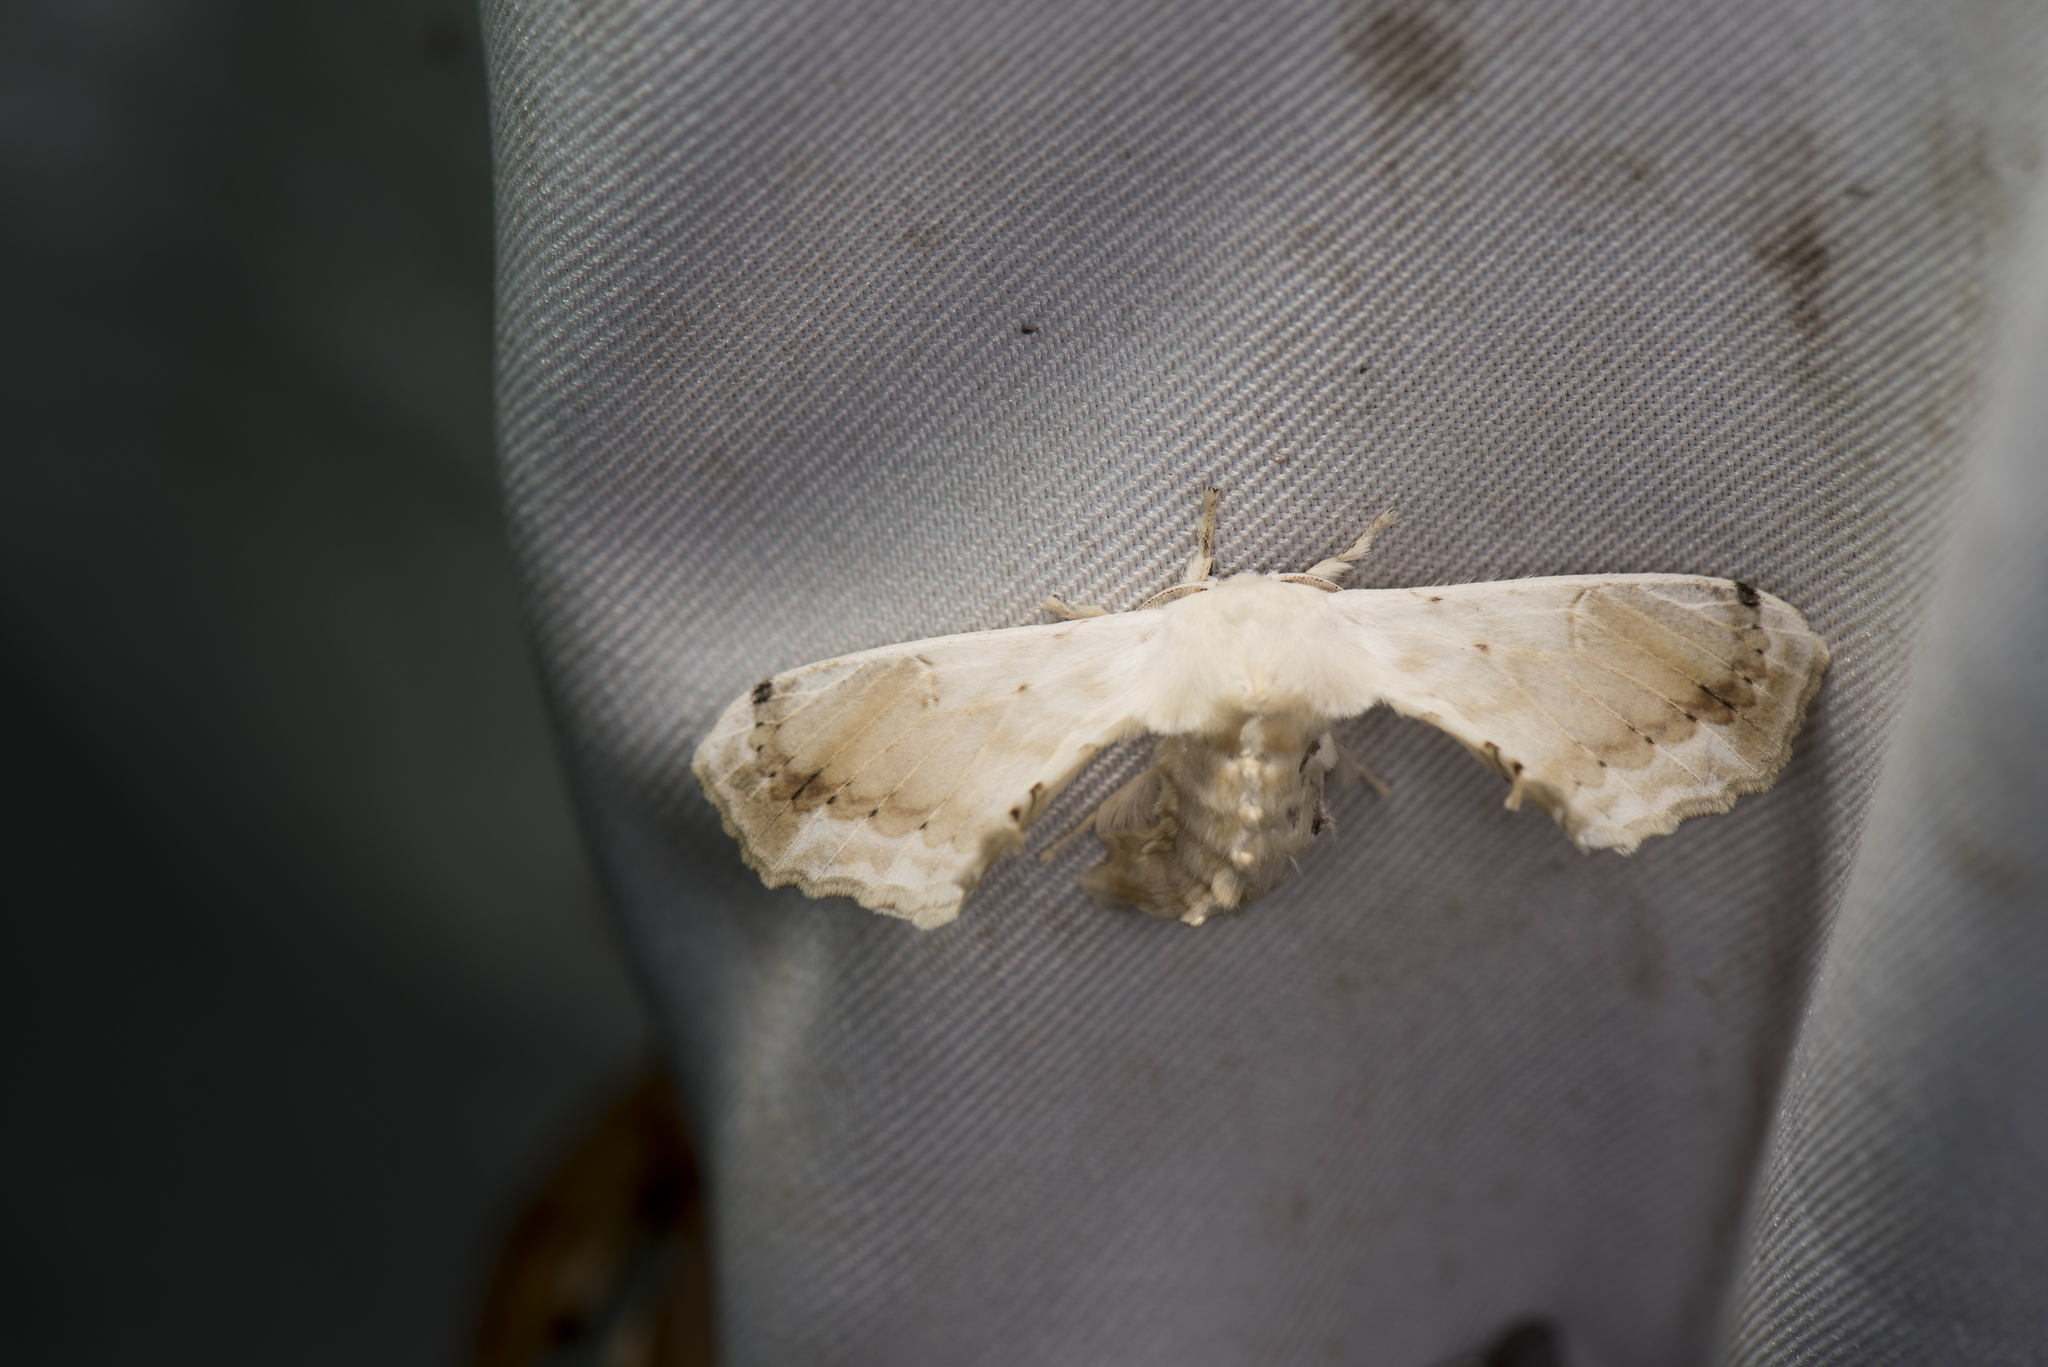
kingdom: Animalia
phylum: Arthropoda
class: Insecta
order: Lepidoptera
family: Bombycidae
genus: Ernolatia
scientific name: Ernolatia moorei
